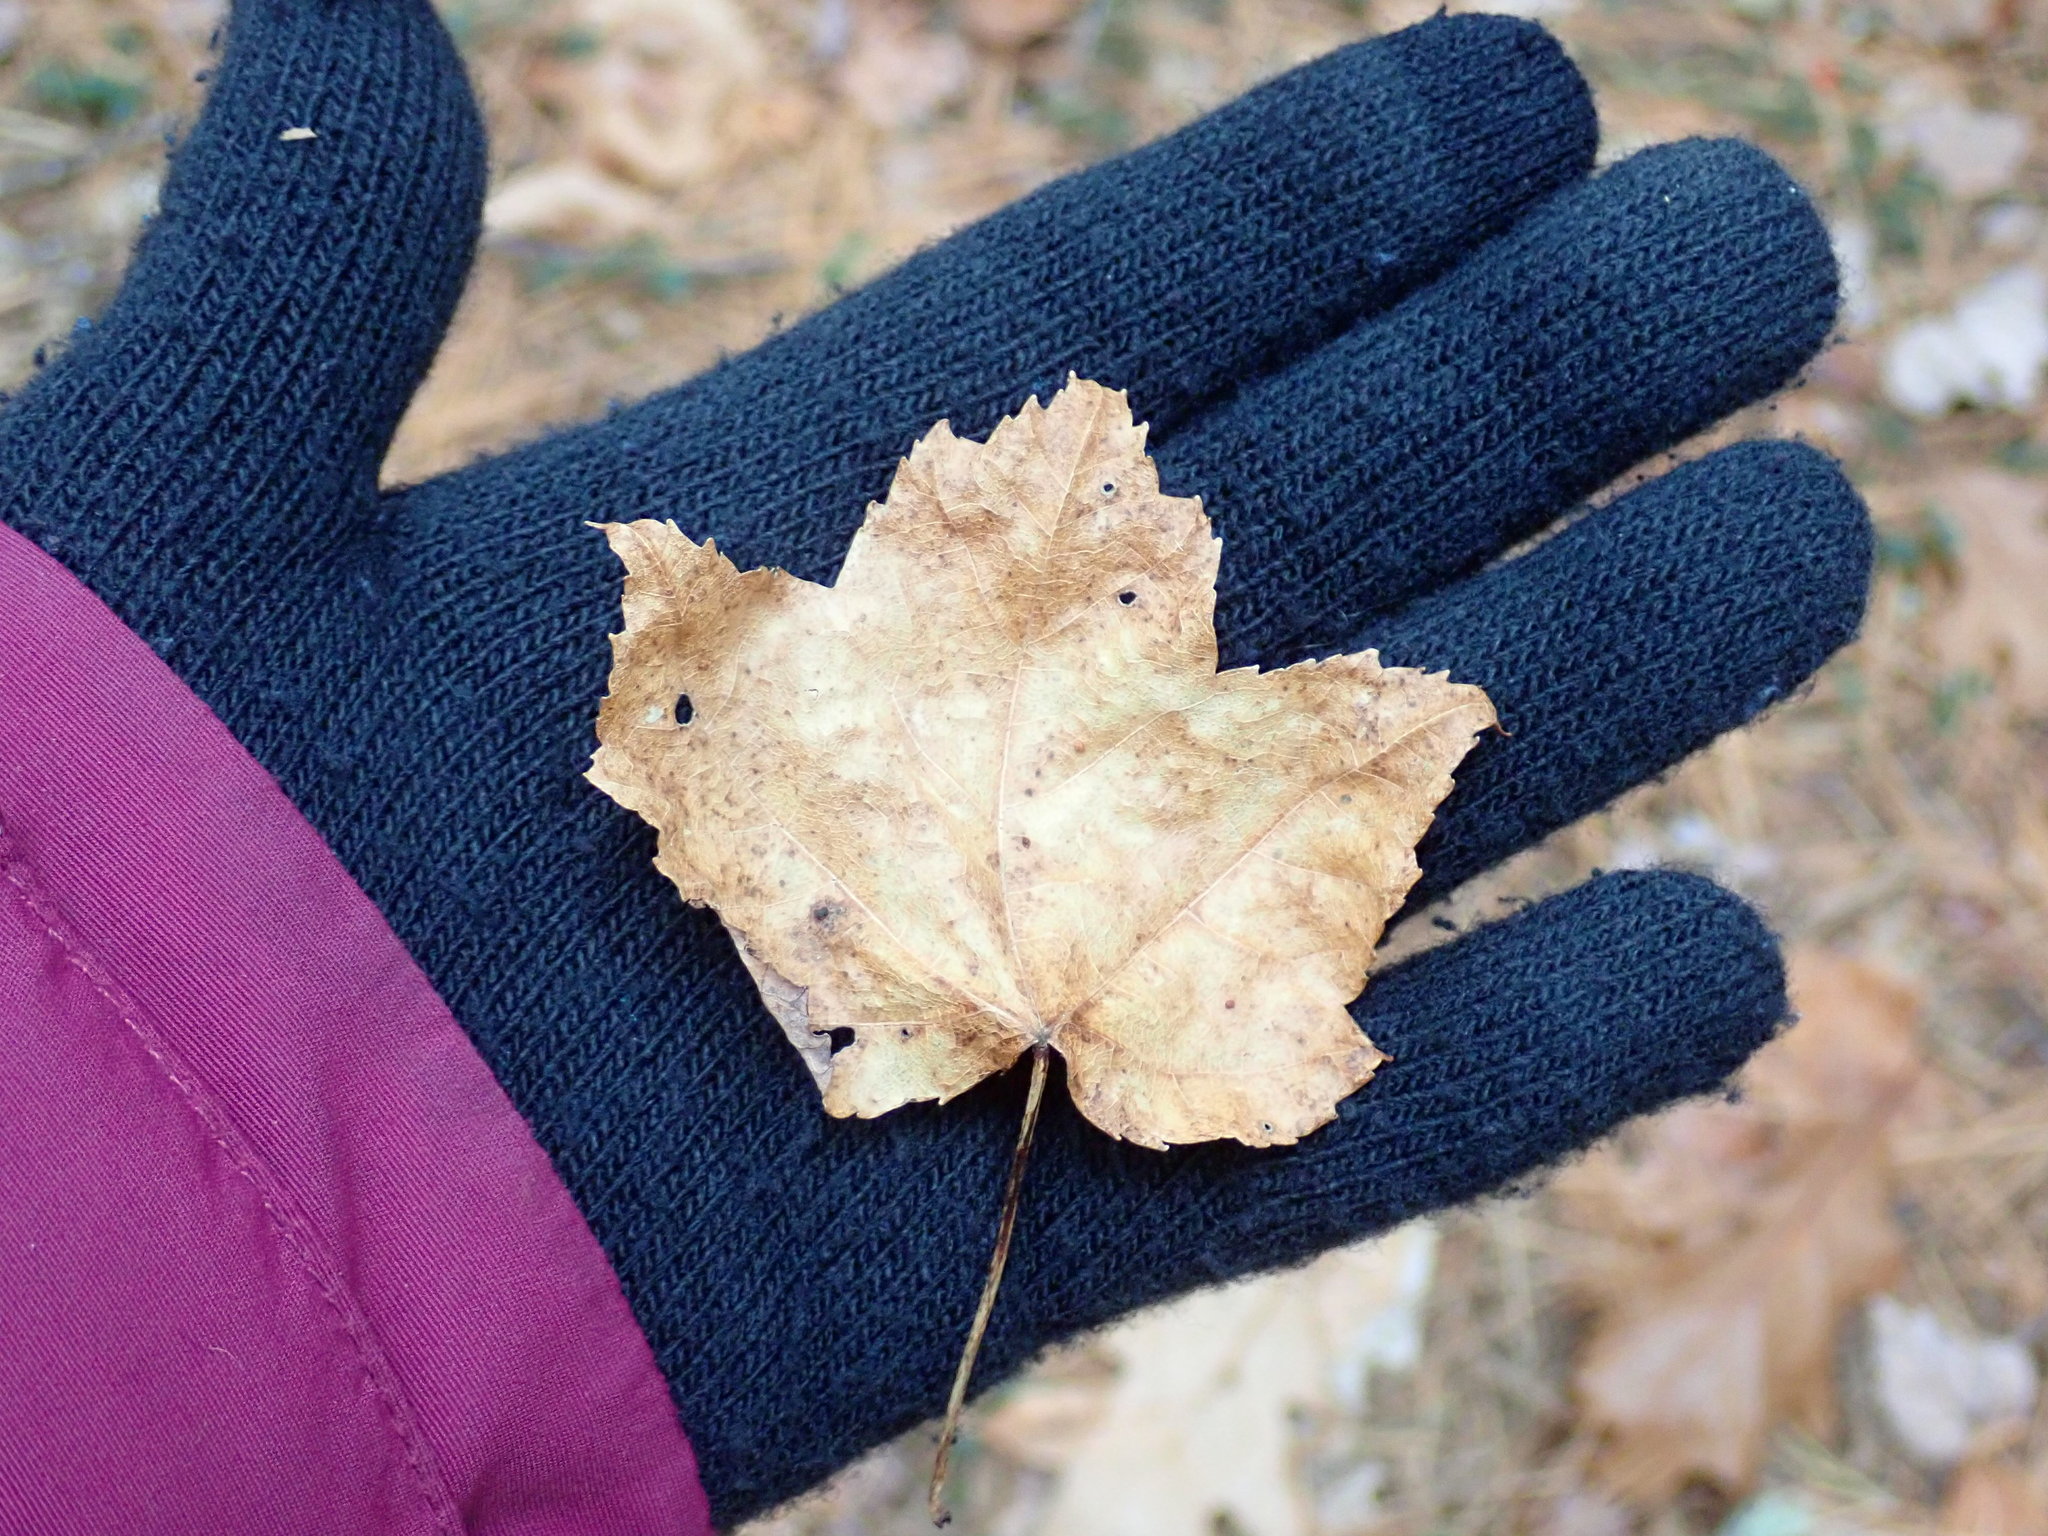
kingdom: Plantae
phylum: Tracheophyta
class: Magnoliopsida
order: Sapindales
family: Sapindaceae
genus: Acer
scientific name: Acer rubrum
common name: Red maple
